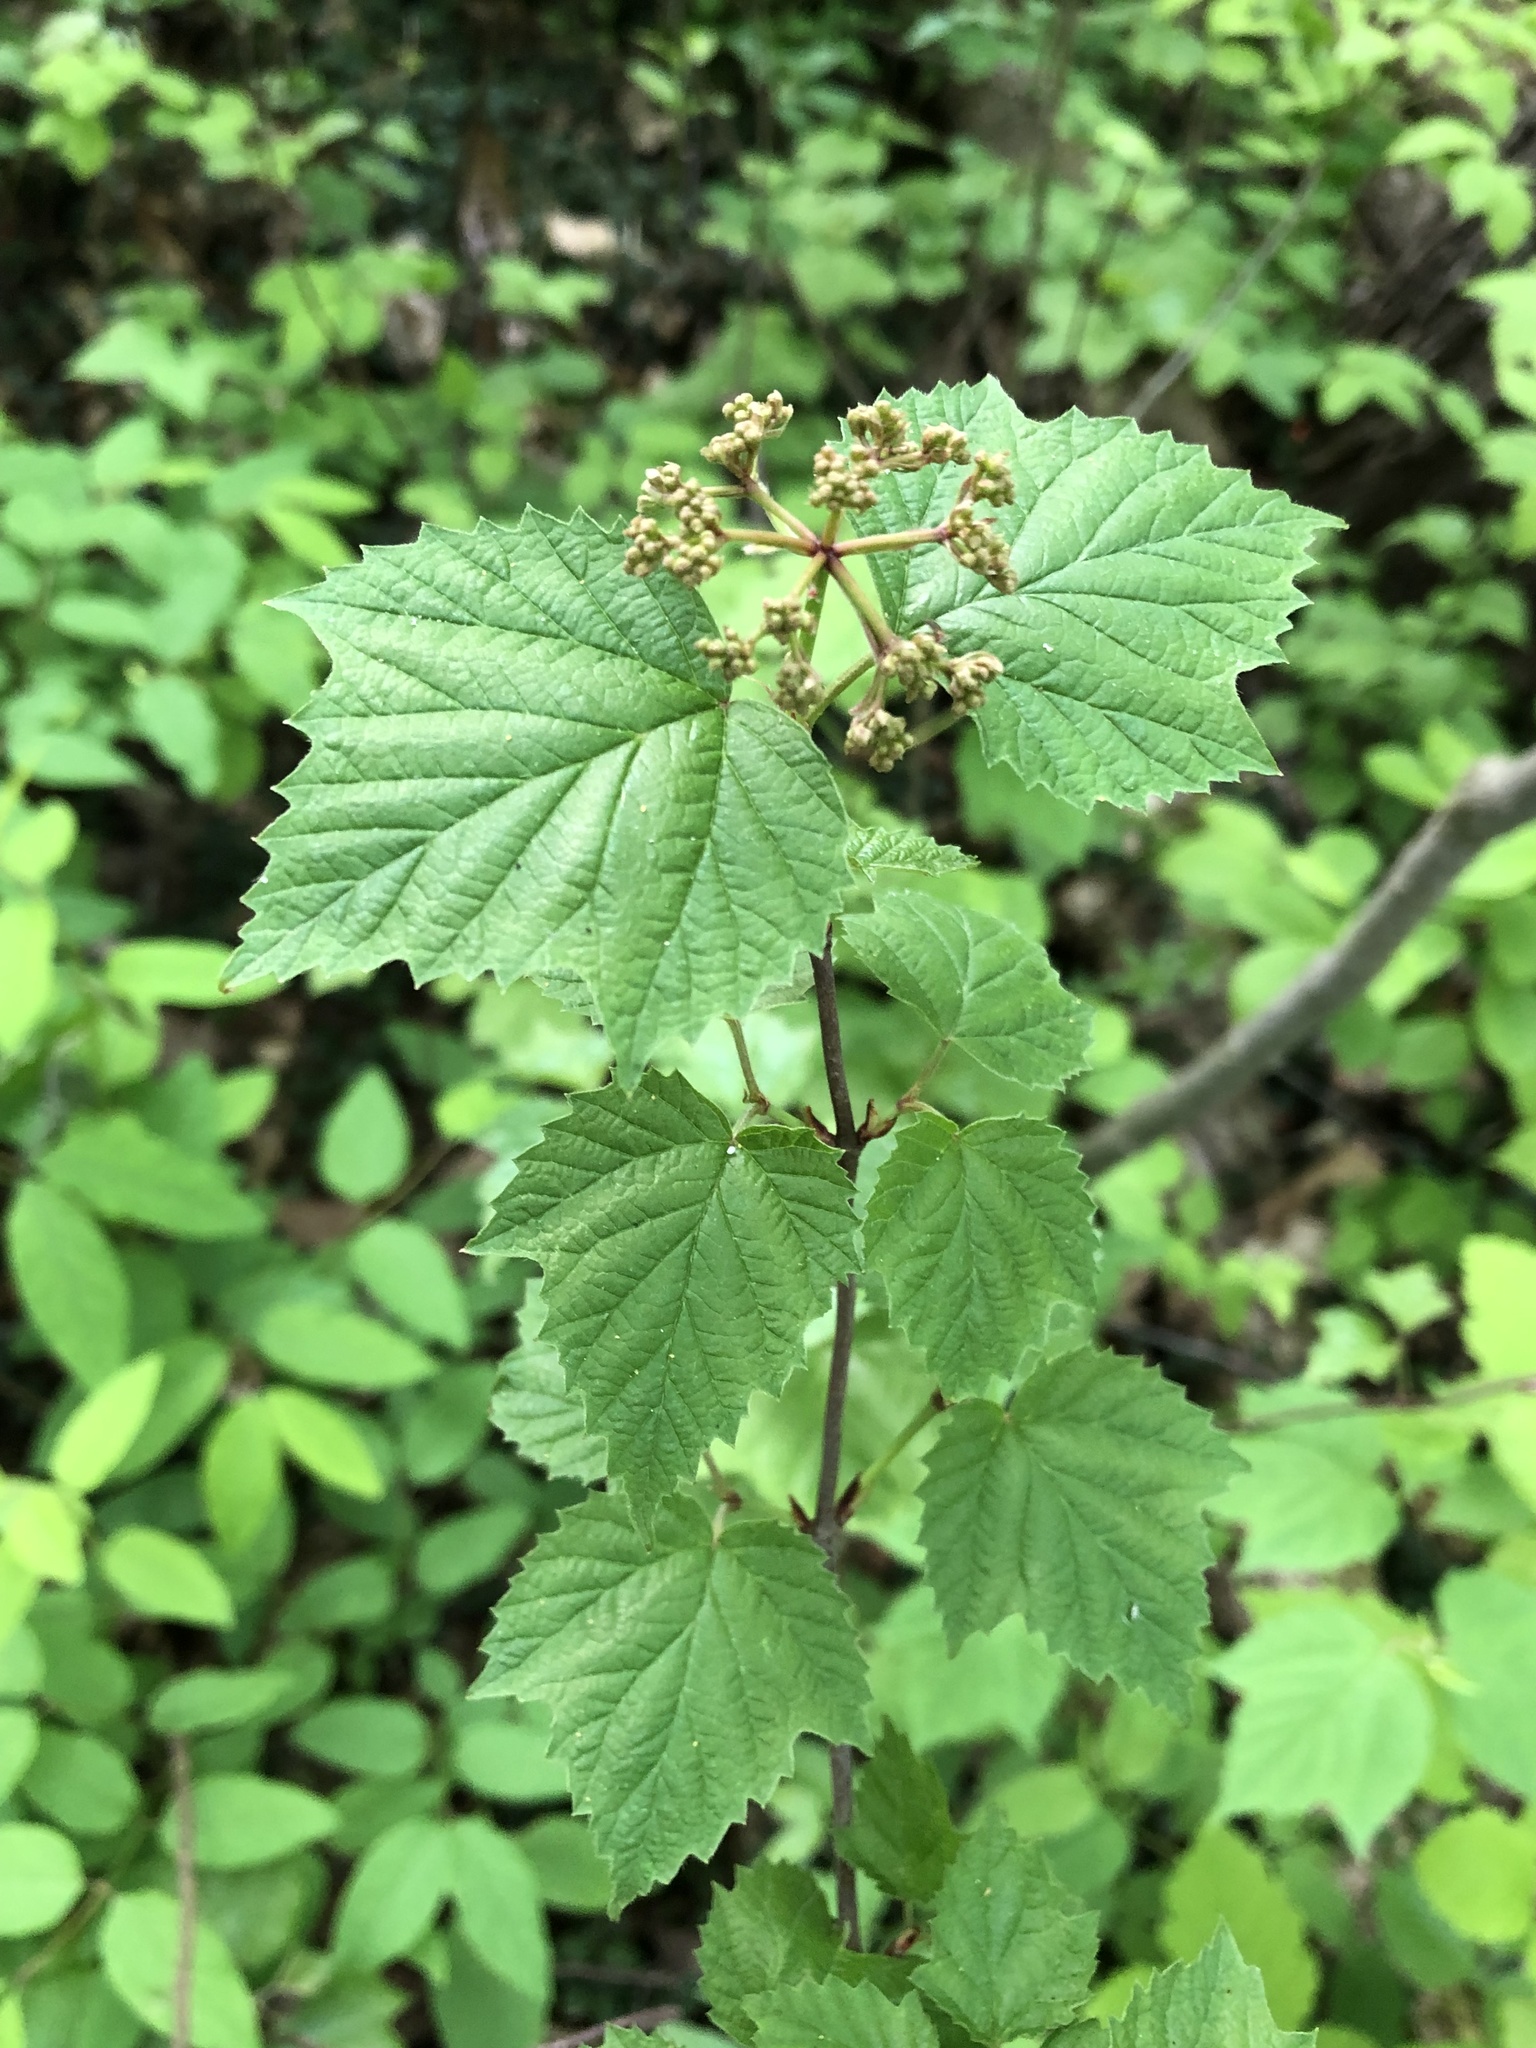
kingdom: Plantae
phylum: Tracheophyta
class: Magnoliopsida
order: Dipsacales
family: Viburnaceae
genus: Viburnum
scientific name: Viburnum acerifolium
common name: Dockmackie
